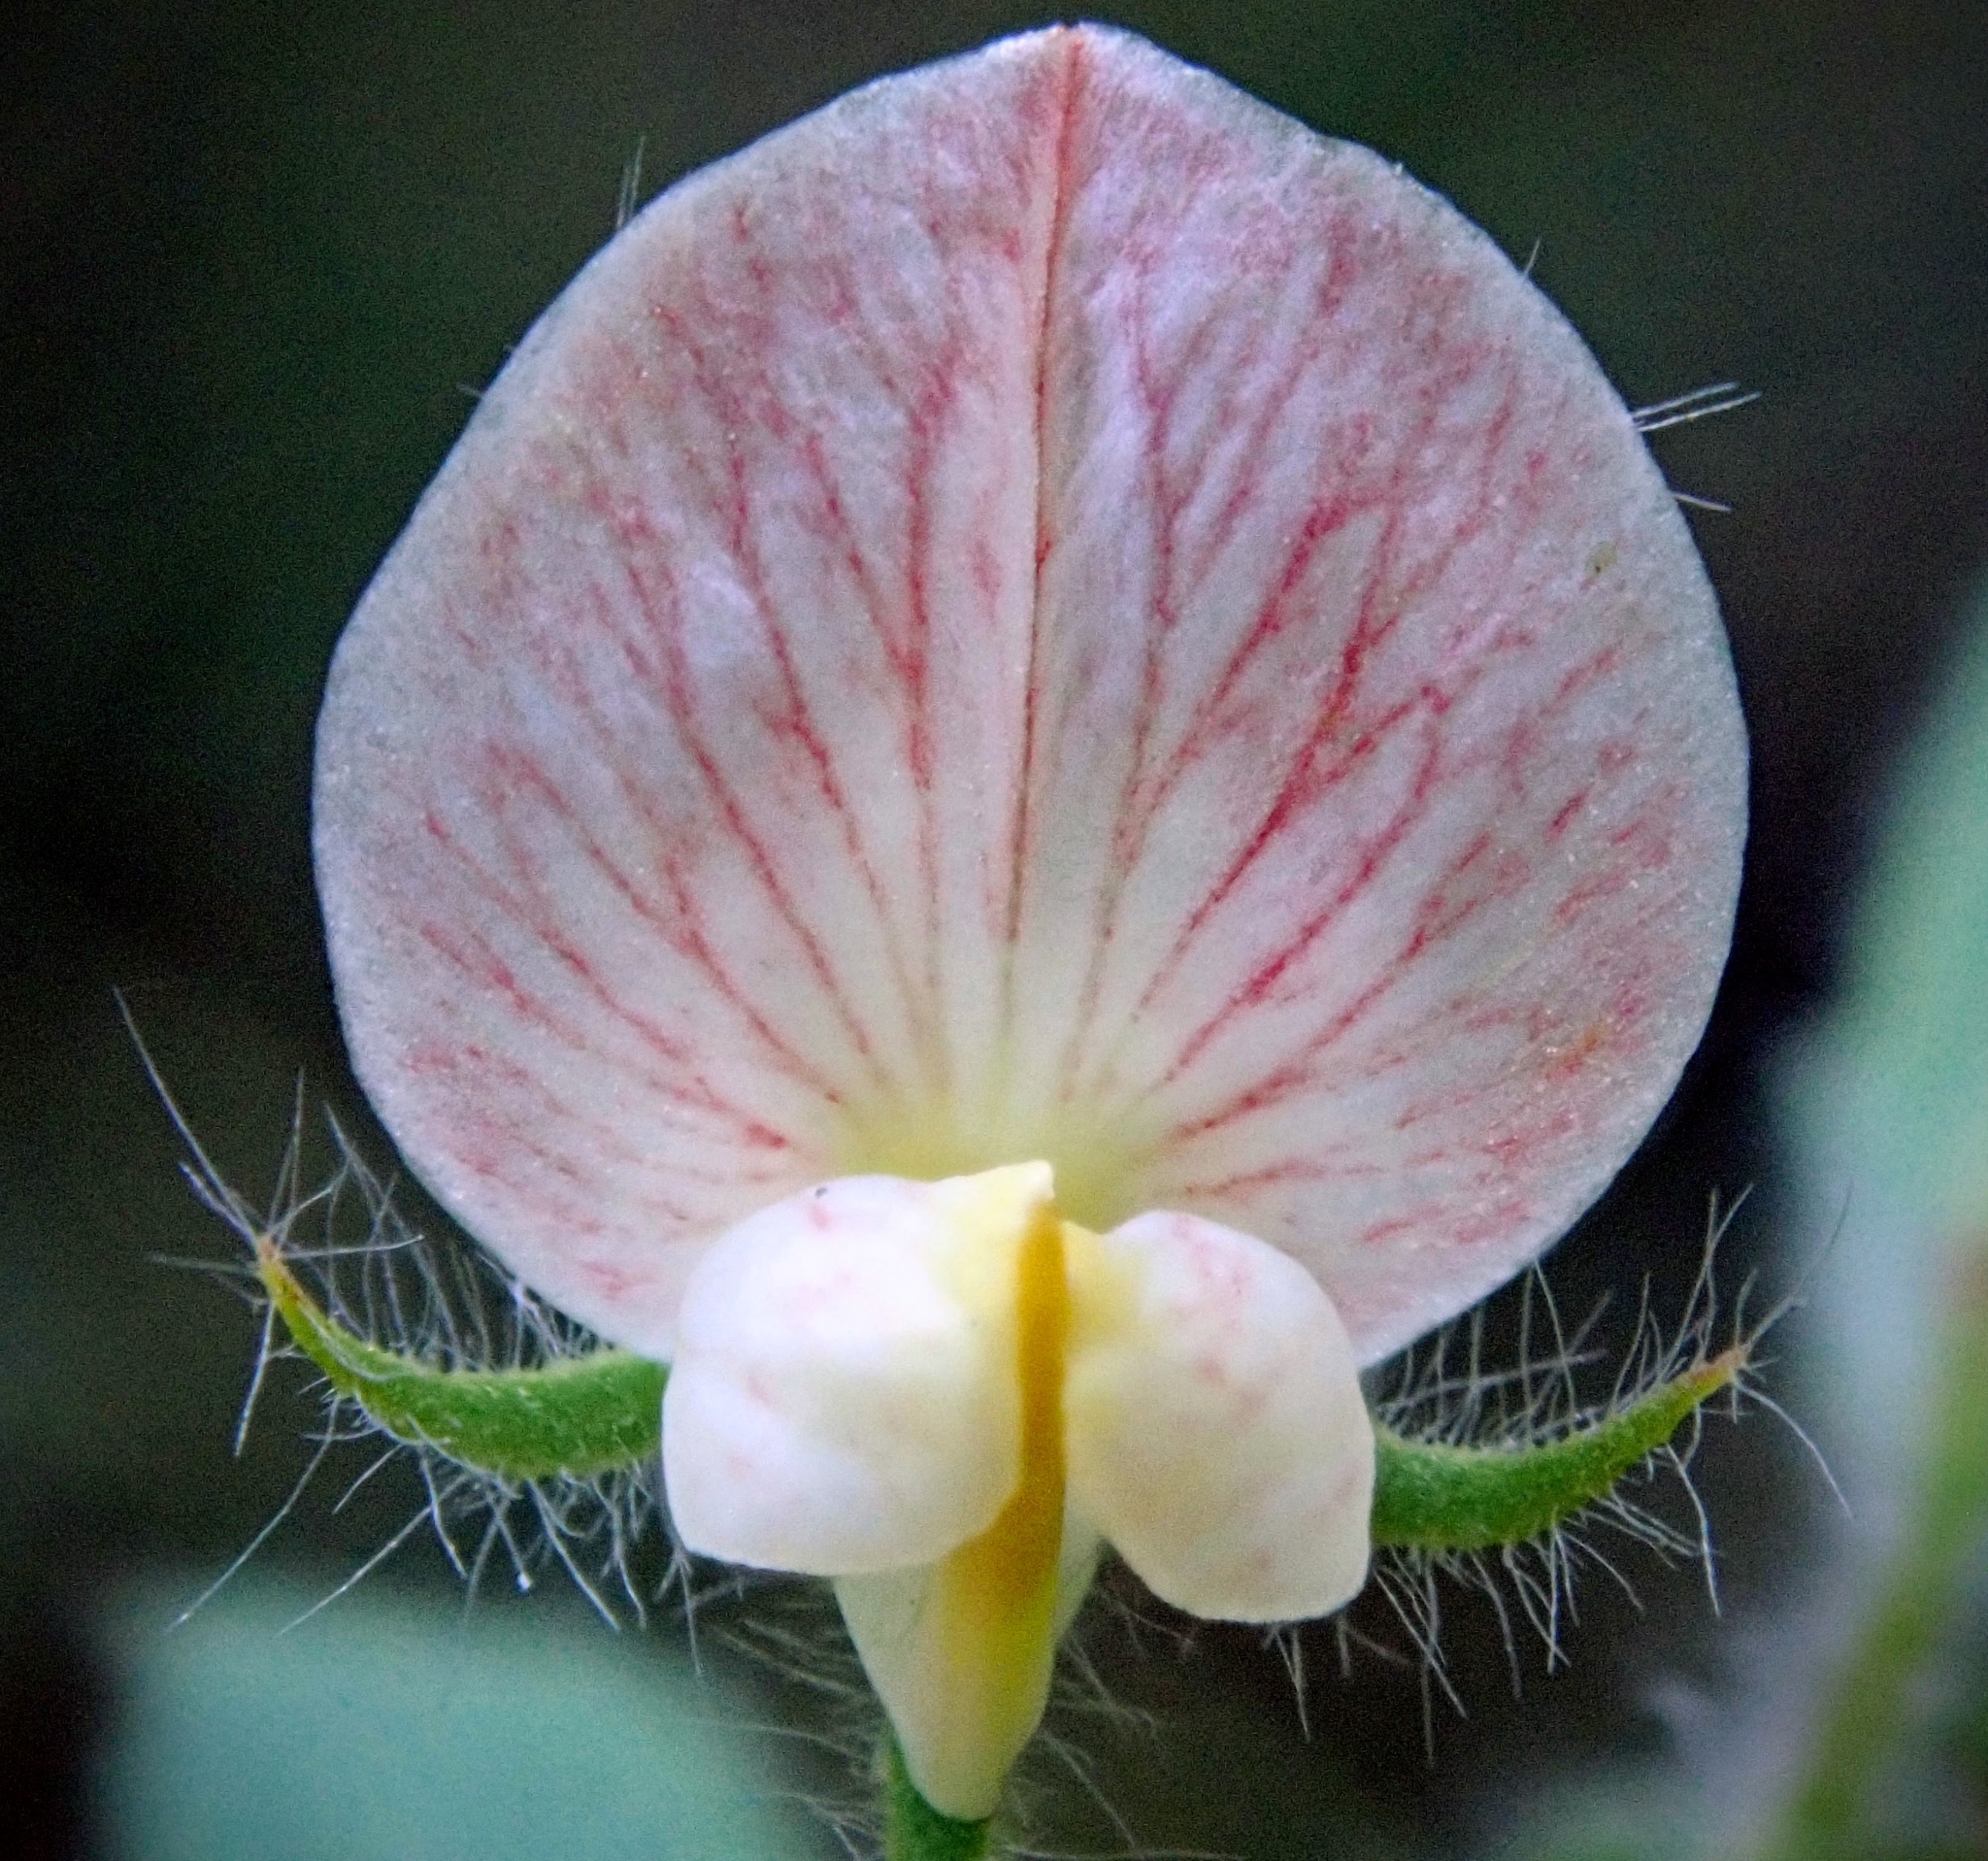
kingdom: Plantae
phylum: Tracheophyta
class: Magnoliopsida
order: Fabales
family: Fabaceae
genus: Acmispon
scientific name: Acmispon americanus
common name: American bird's-foot trefoil
